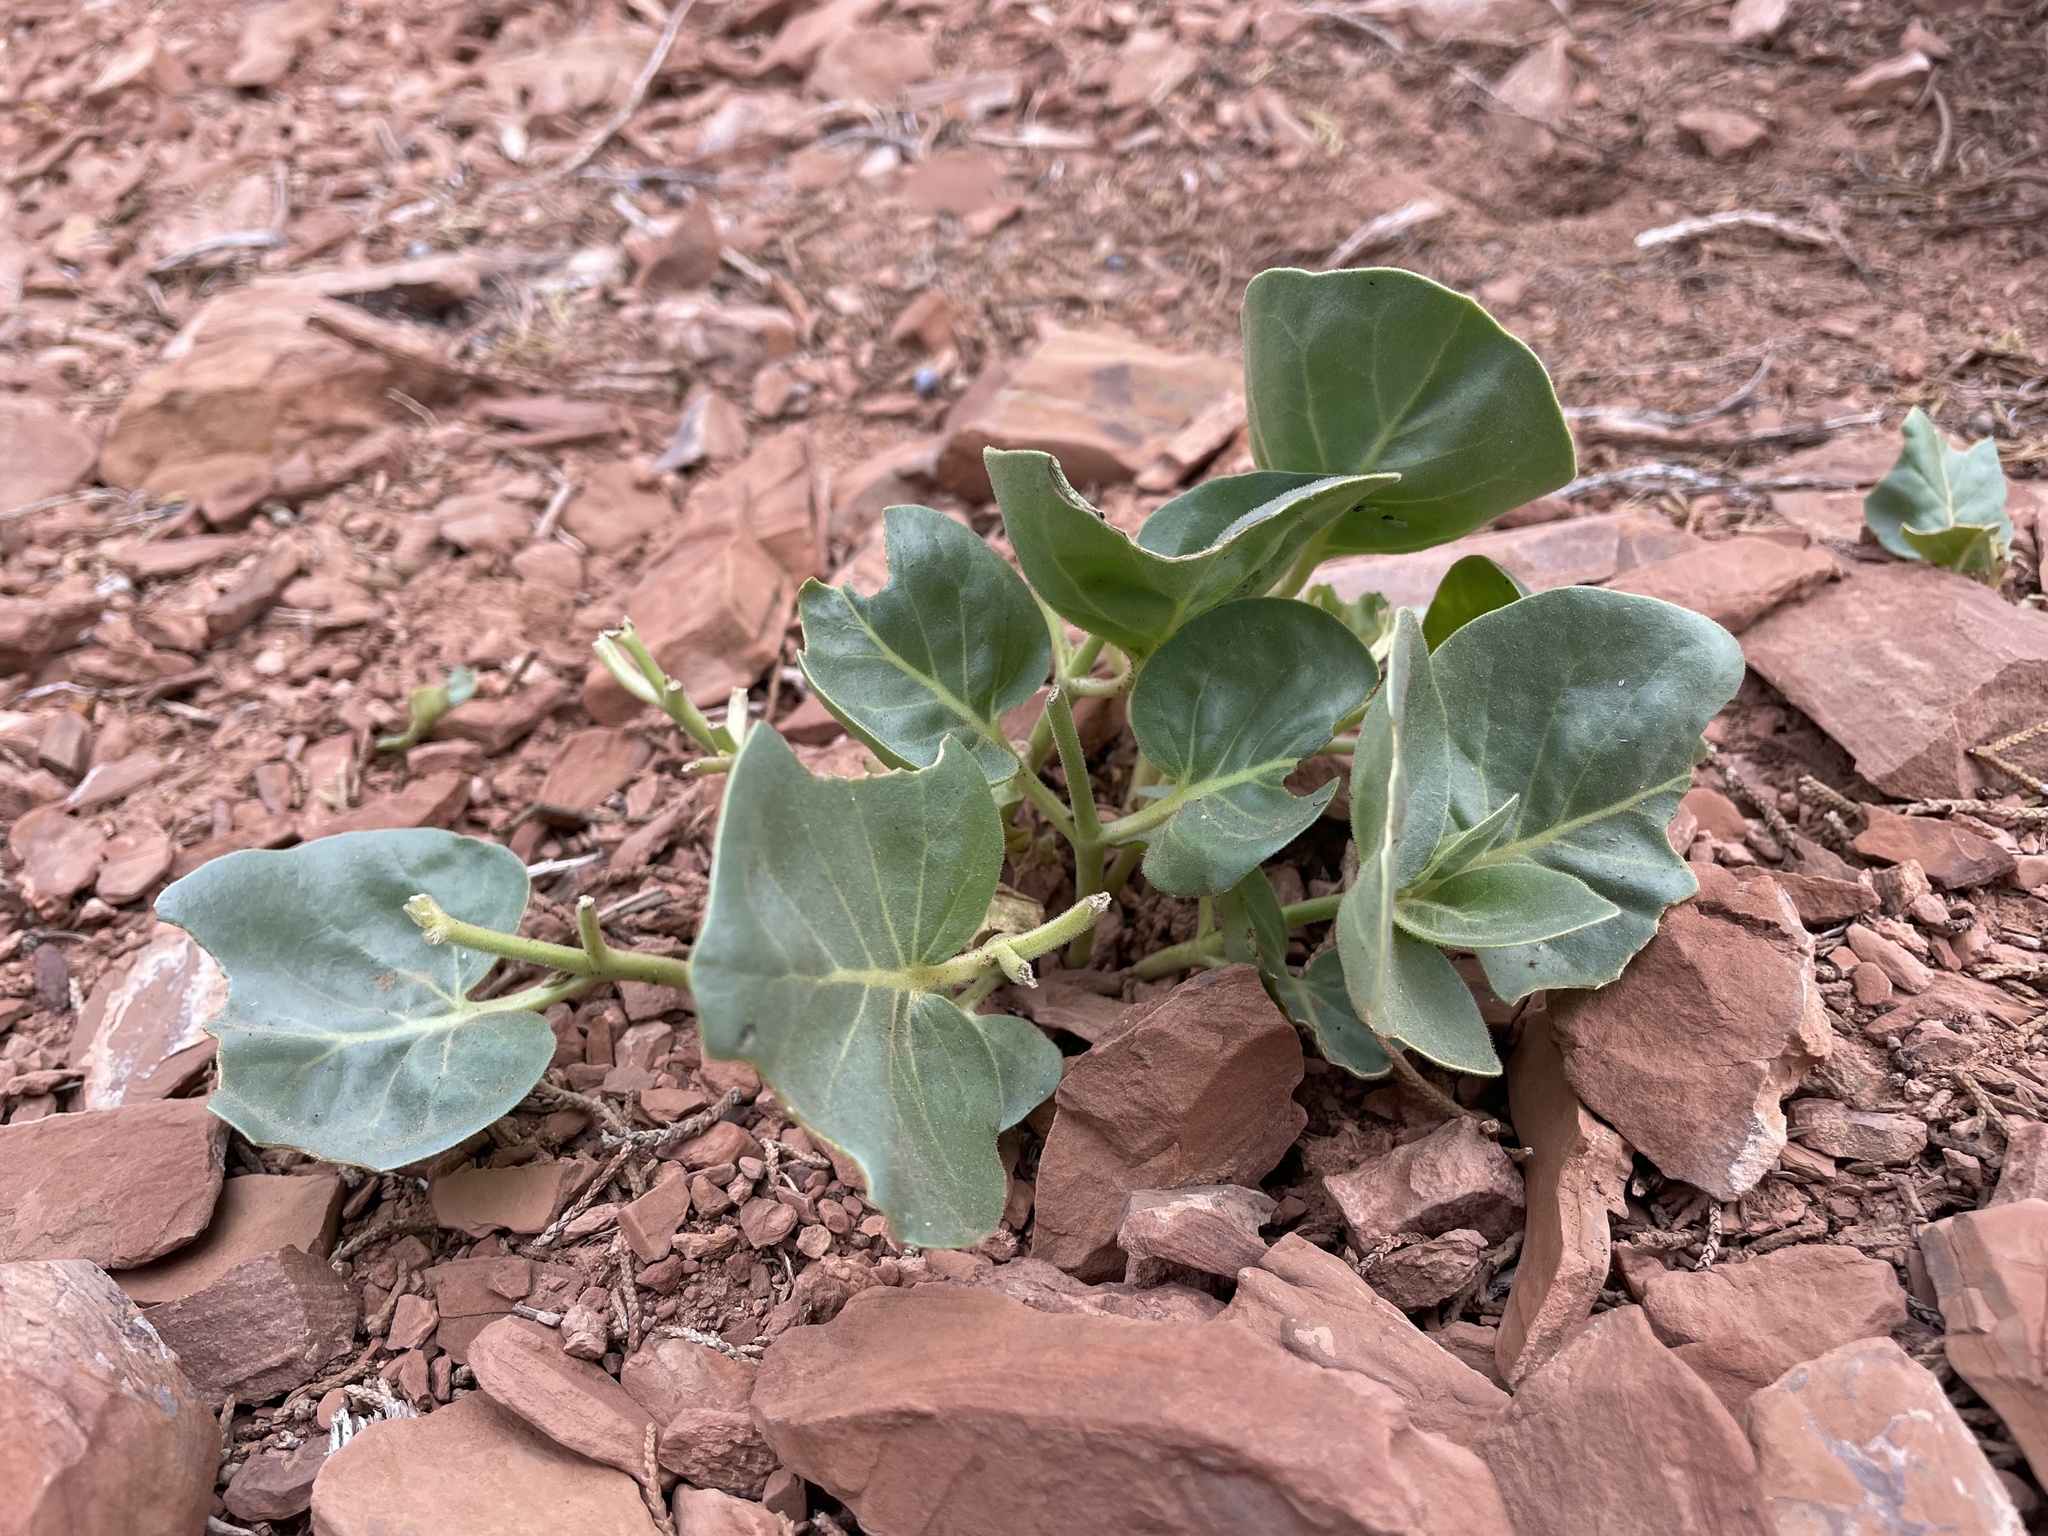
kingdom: Plantae
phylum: Tracheophyta
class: Magnoliopsida
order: Caryophyllales
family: Nyctaginaceae
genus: Mirabilis
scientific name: Mirabilis multiflora
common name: Froebel's four-o'clock
